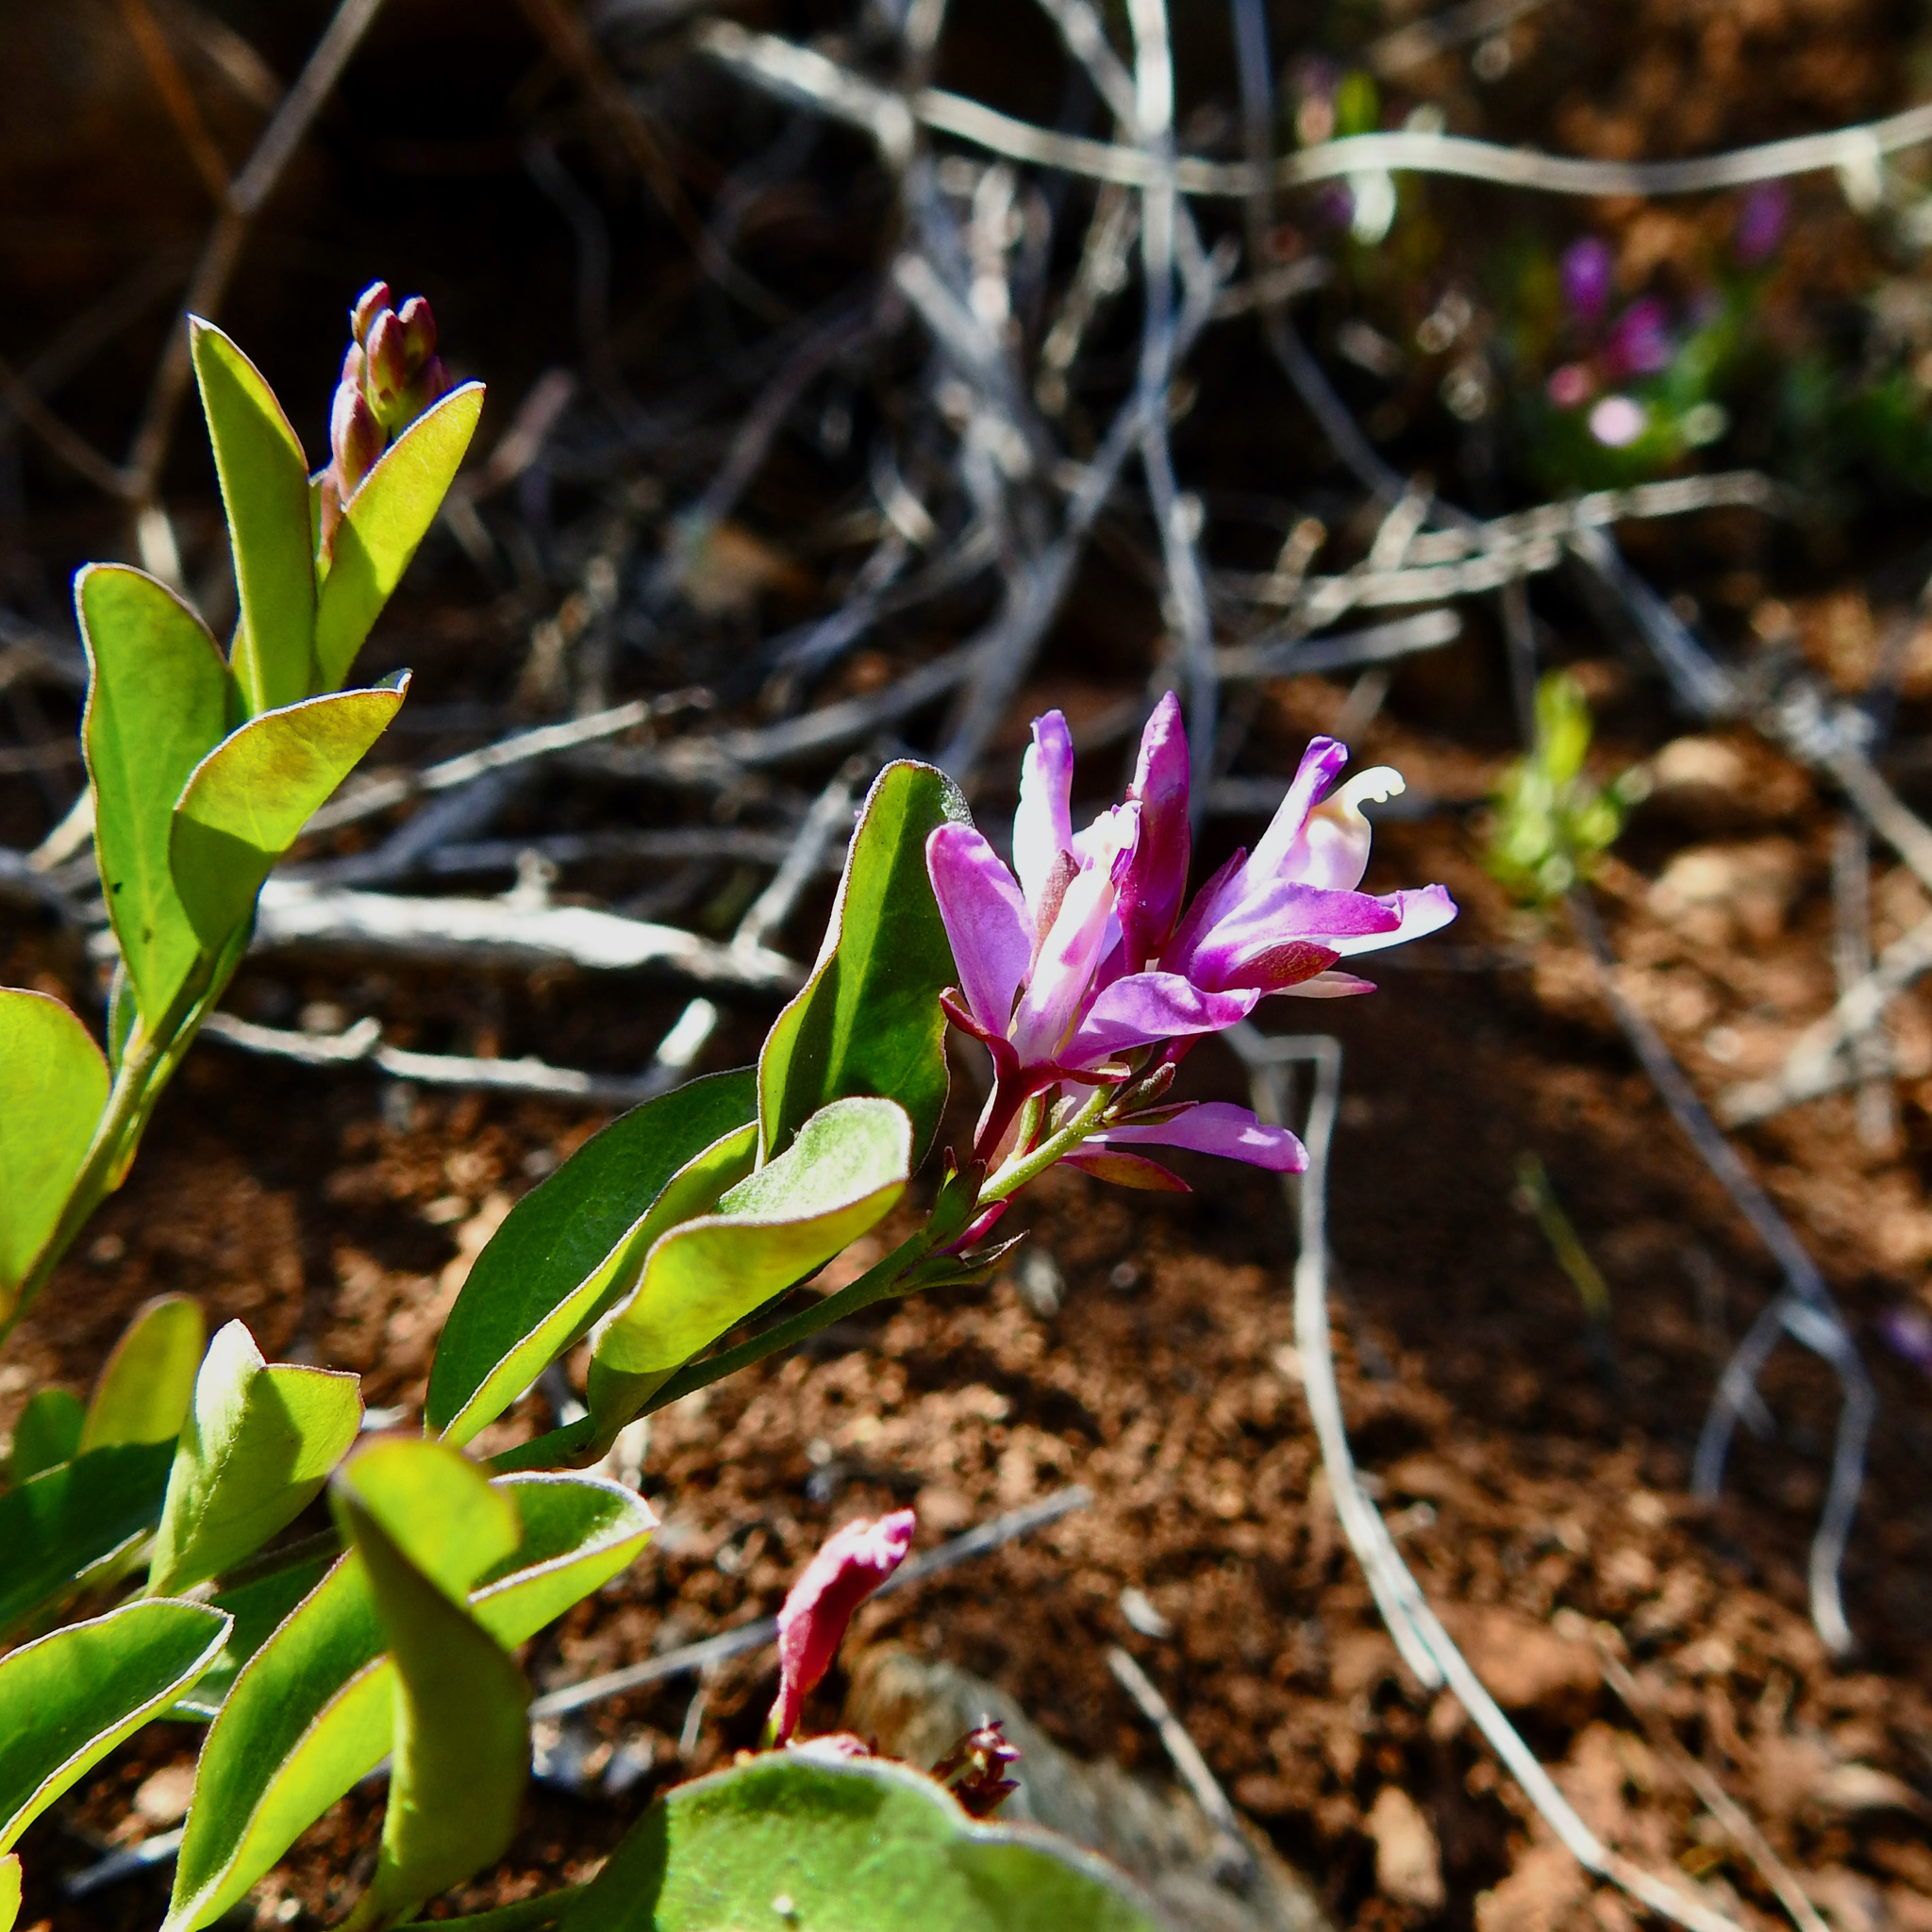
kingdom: Plantae
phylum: Tracheophyta
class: Magnoliopsida
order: Fabales
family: Polygalaceae
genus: Rhinotropis
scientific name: Rhinotropis californica
